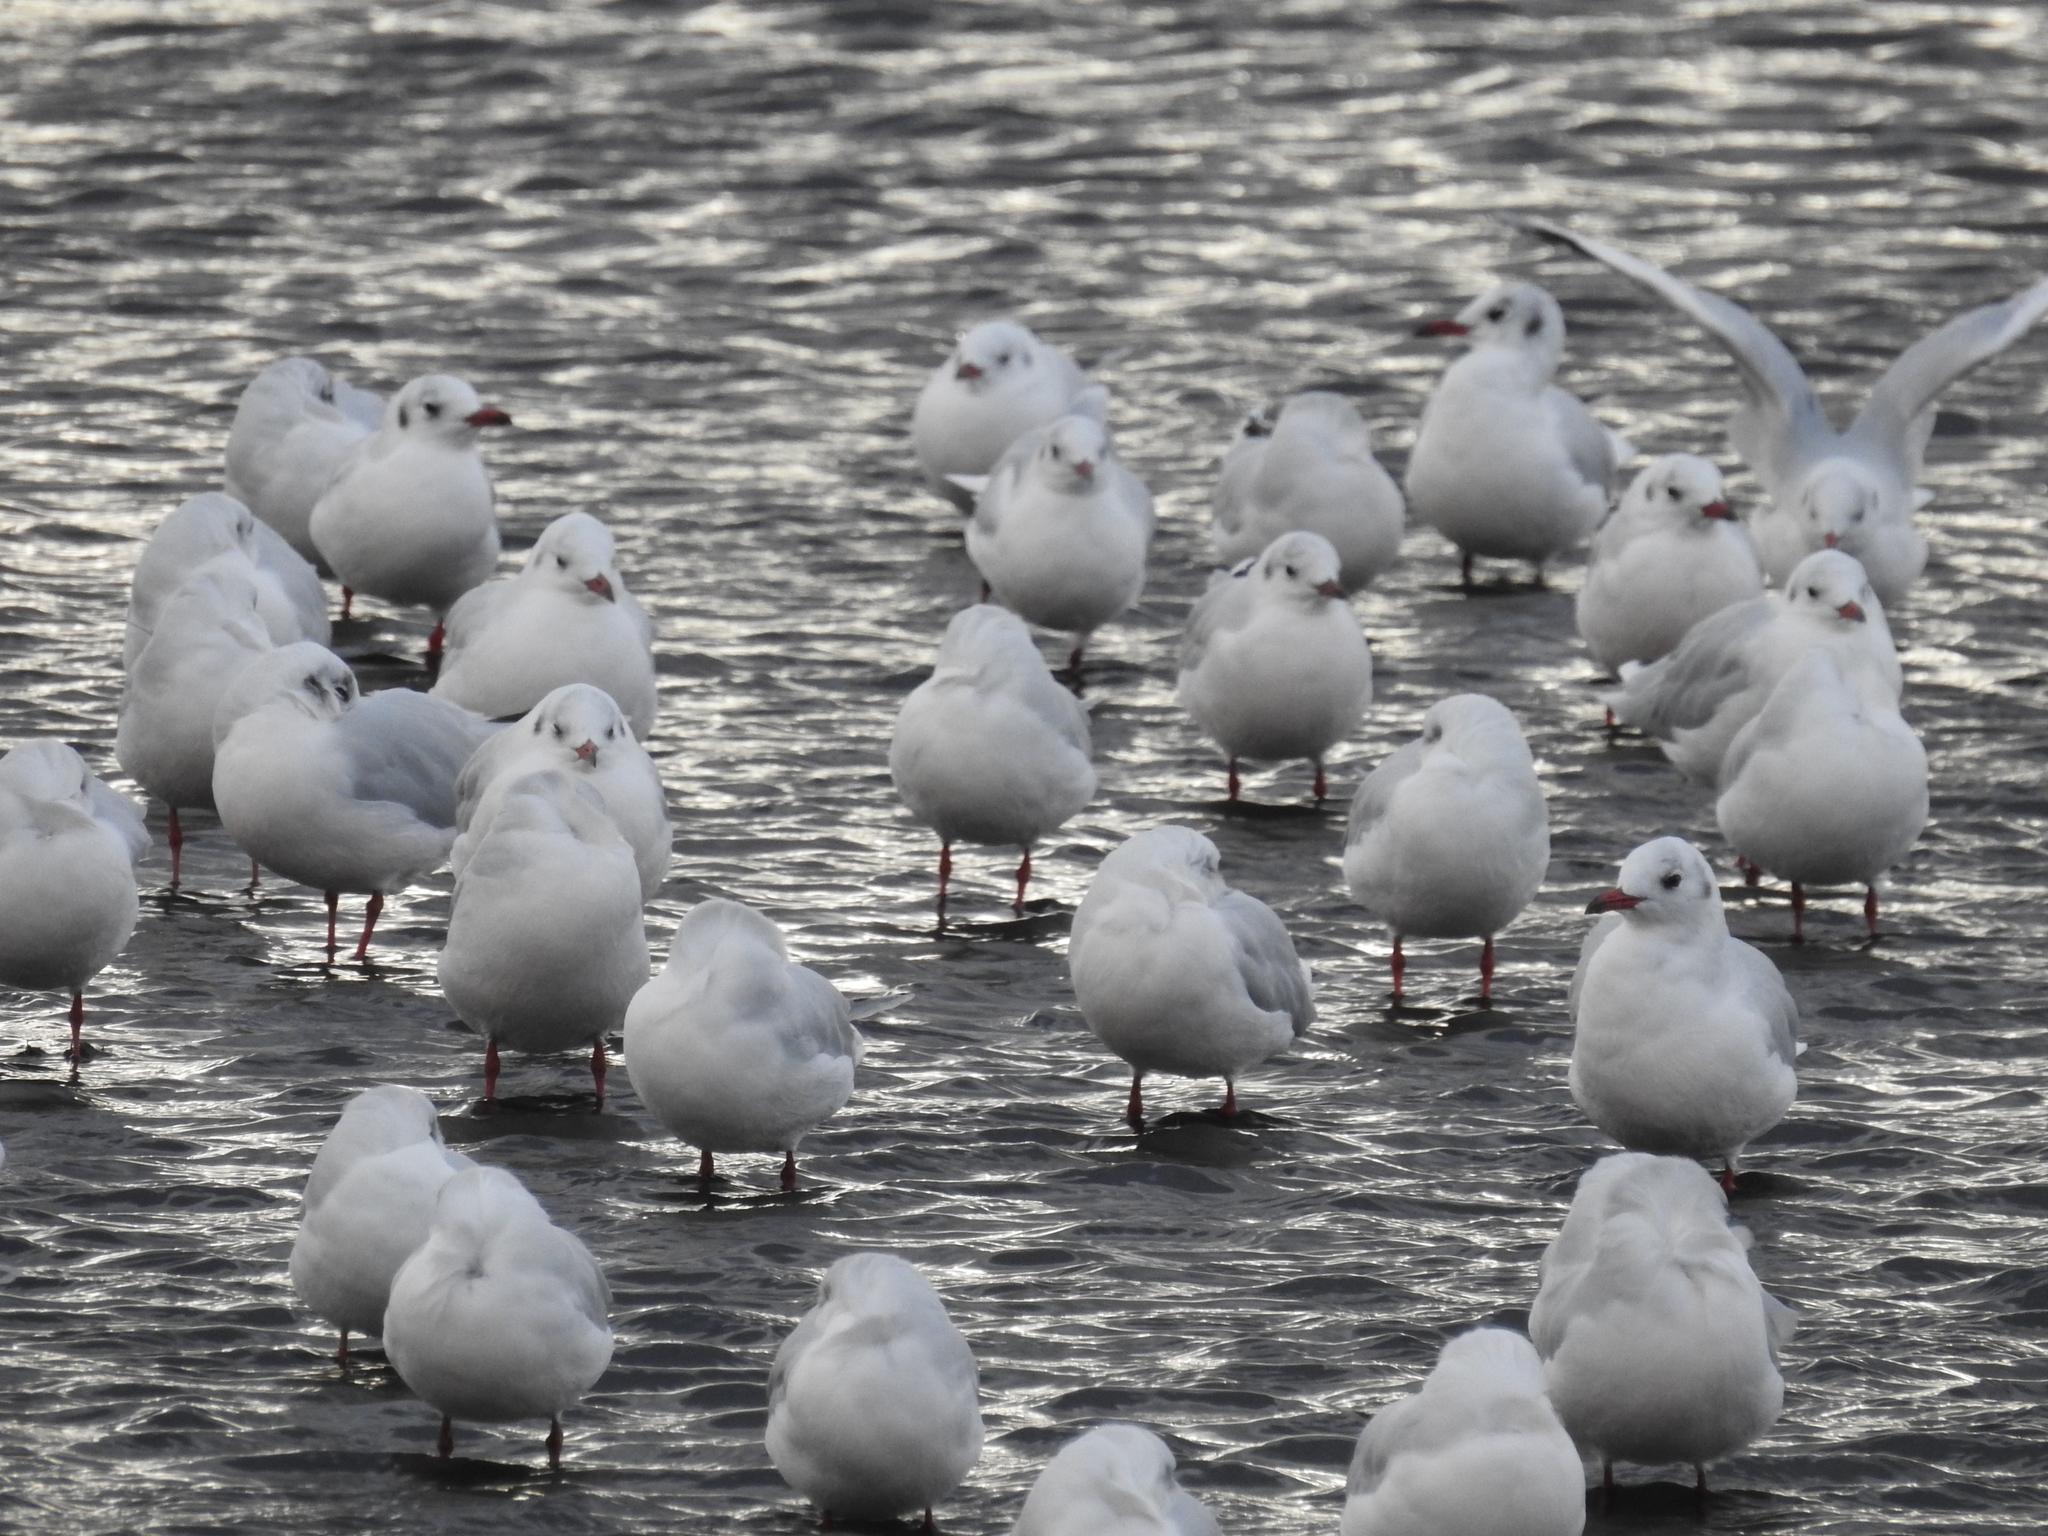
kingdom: Animalia
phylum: Chordata
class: Aves
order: Charadriiformes
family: Laridae
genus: Chroicocephalus
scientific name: Chroicocephalus maculipennis
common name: Brown-hooded gull
